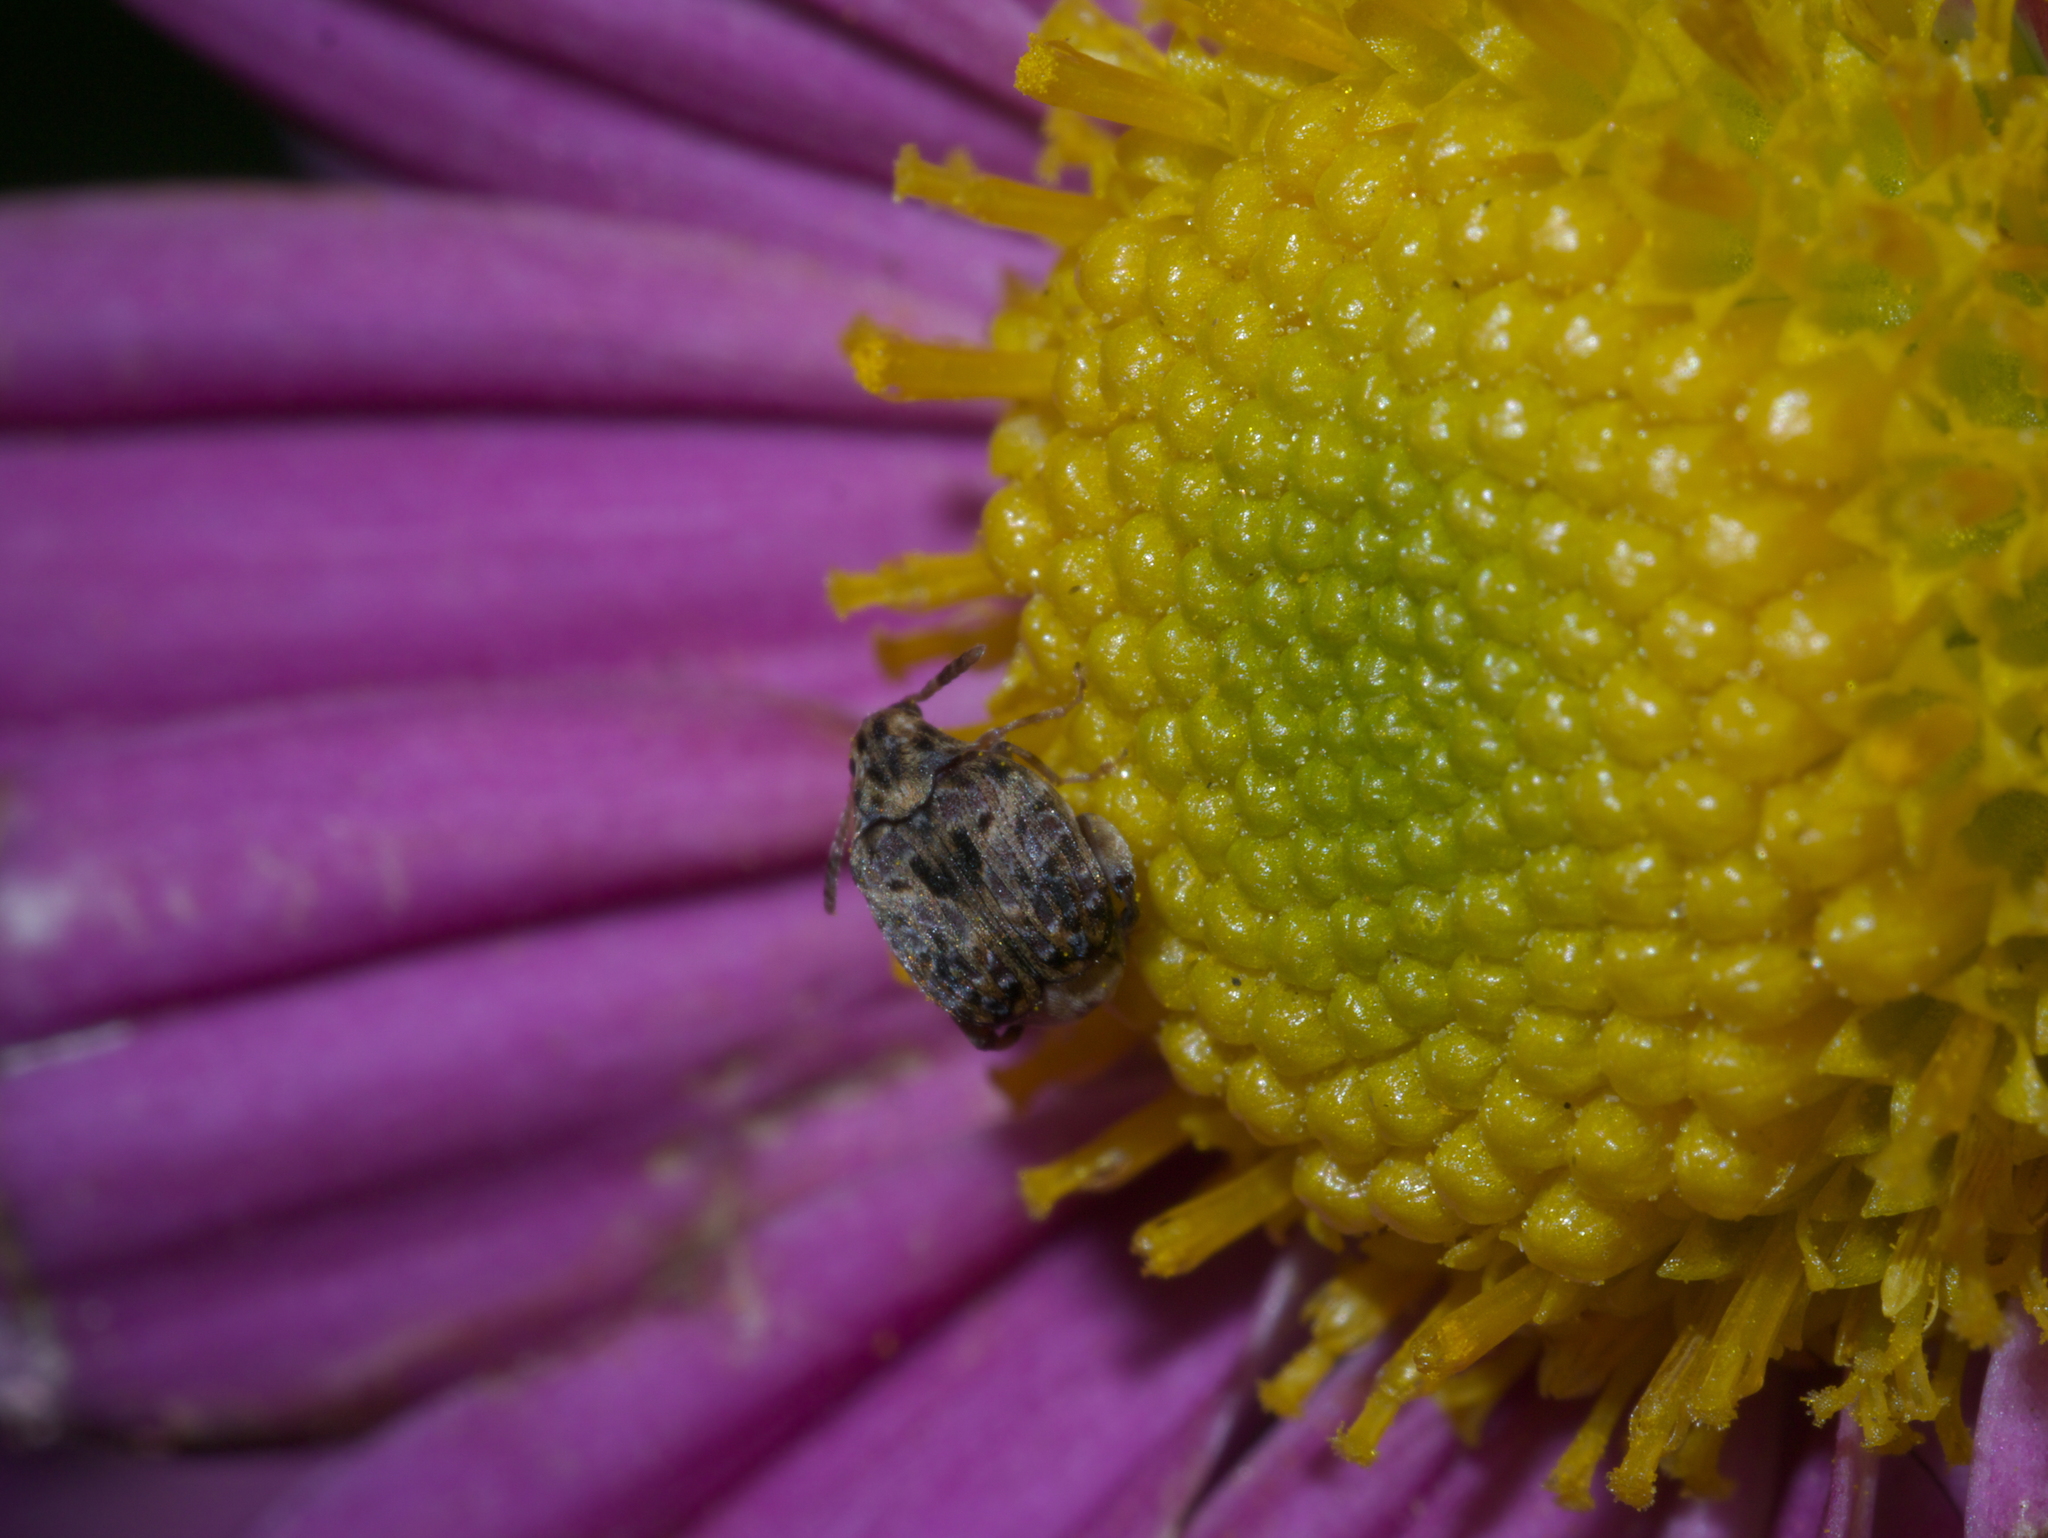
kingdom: Animalia
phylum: Arthropoda
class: Insecta
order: Coleoptera
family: Chrysomelidae
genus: Gibbobruchus
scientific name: Gibbobruchus mimus
